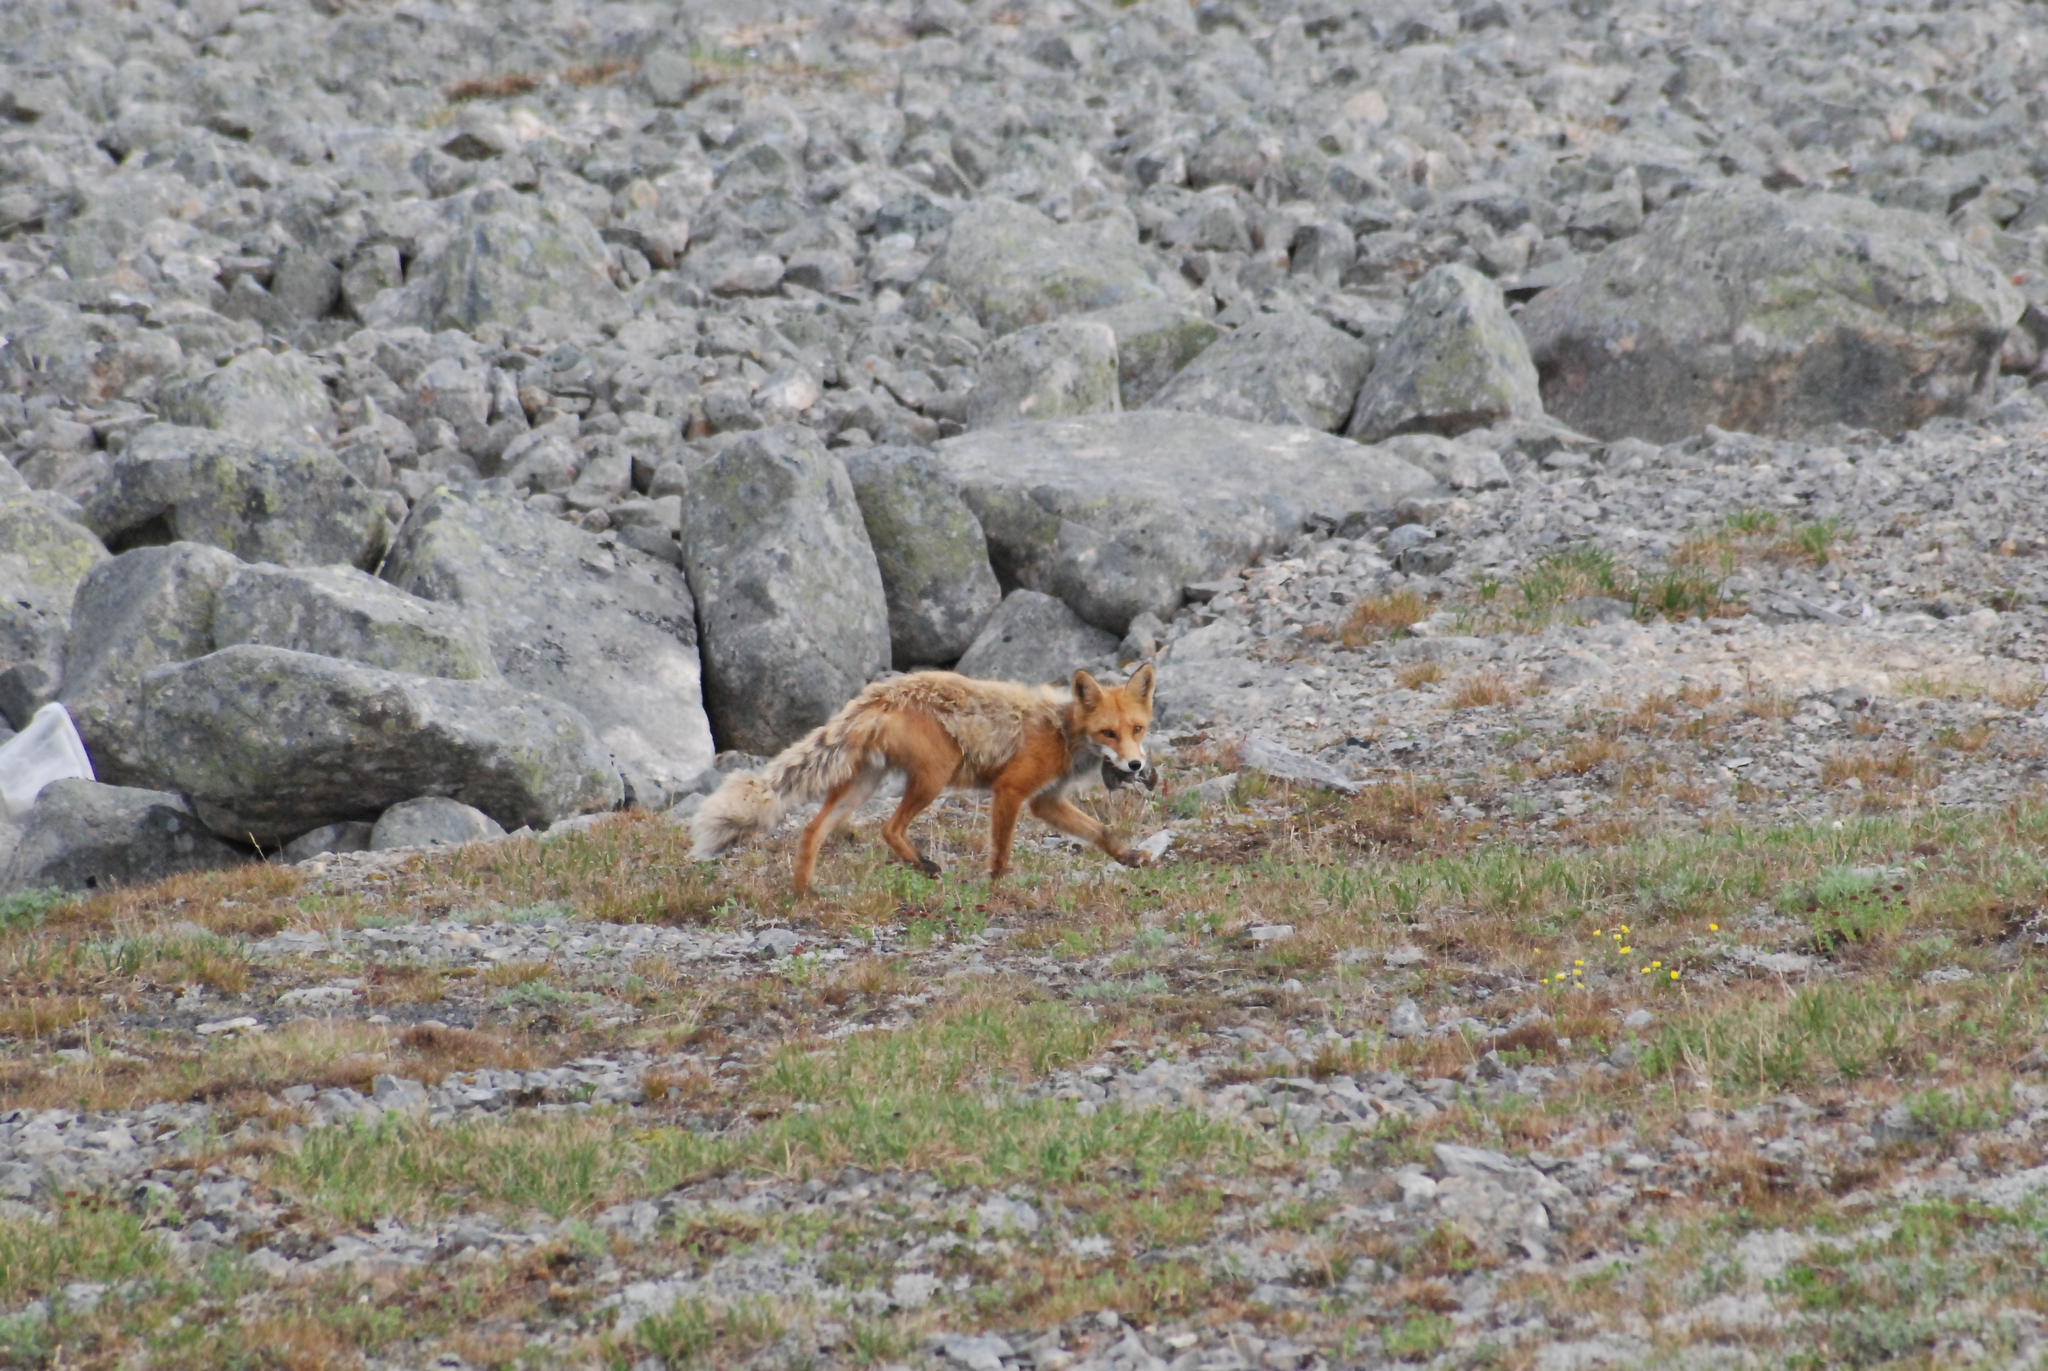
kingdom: Animalia
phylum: Chordata
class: Mammalia
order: Carnivora
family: Canidae
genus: Vulpes
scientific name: Vulpes vulpes
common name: Red fox
